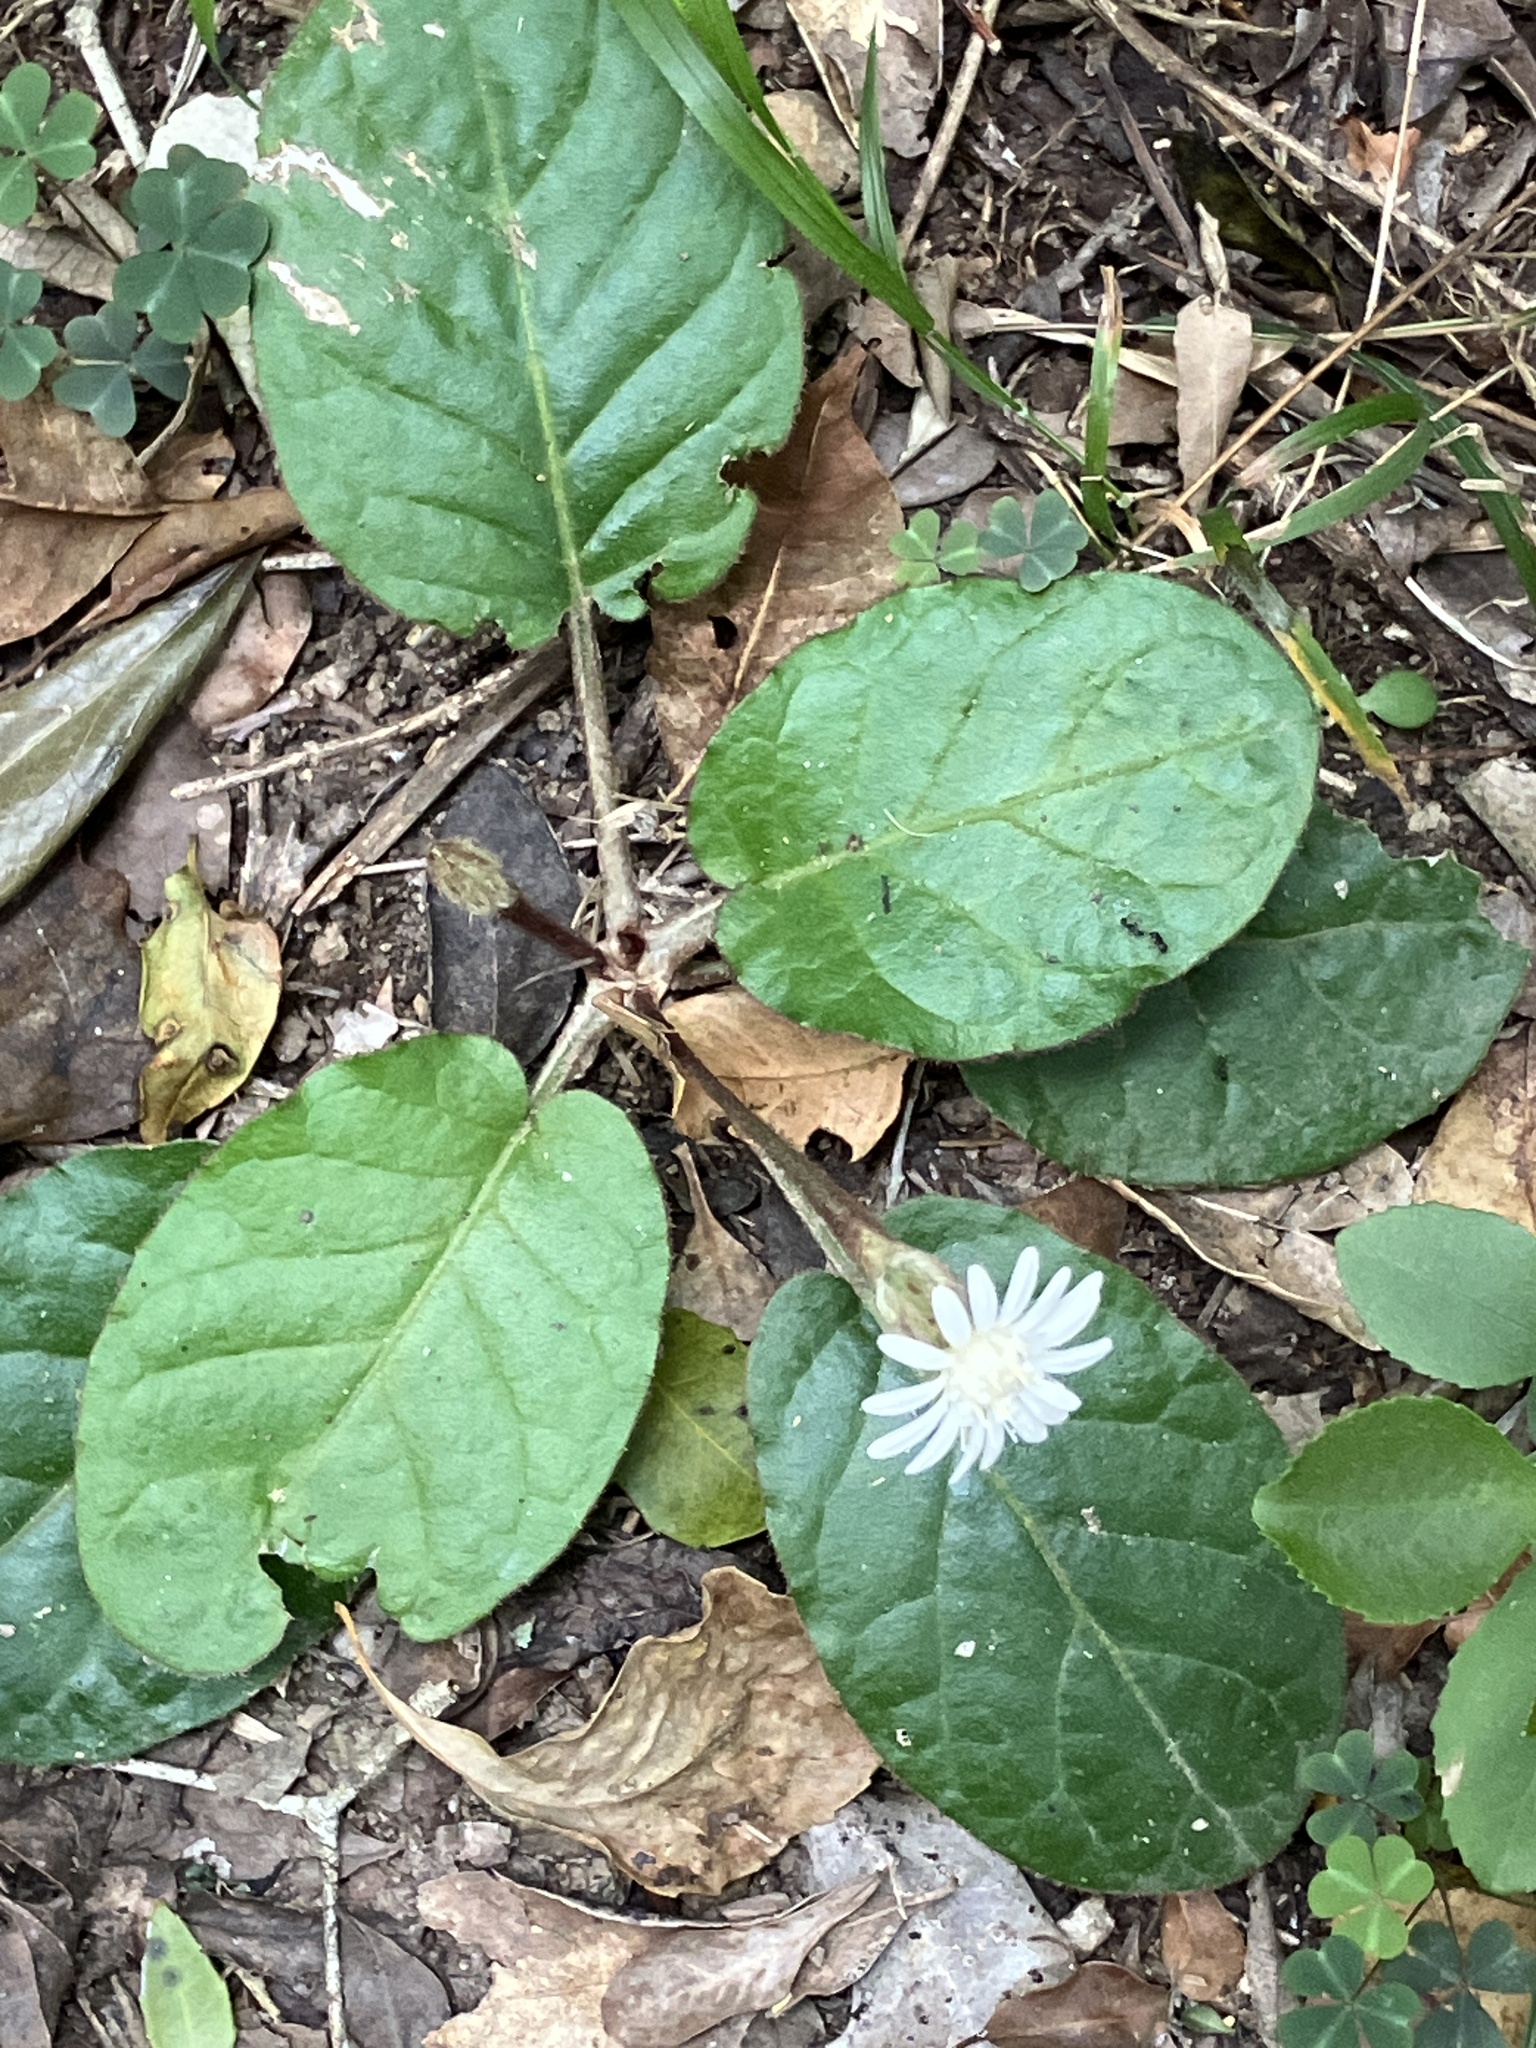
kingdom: Plantae
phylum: Tracheophyta
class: Magnoliopsida
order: Asterales
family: Asteraceae
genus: Piloselloides
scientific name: Piloselloides cordata
